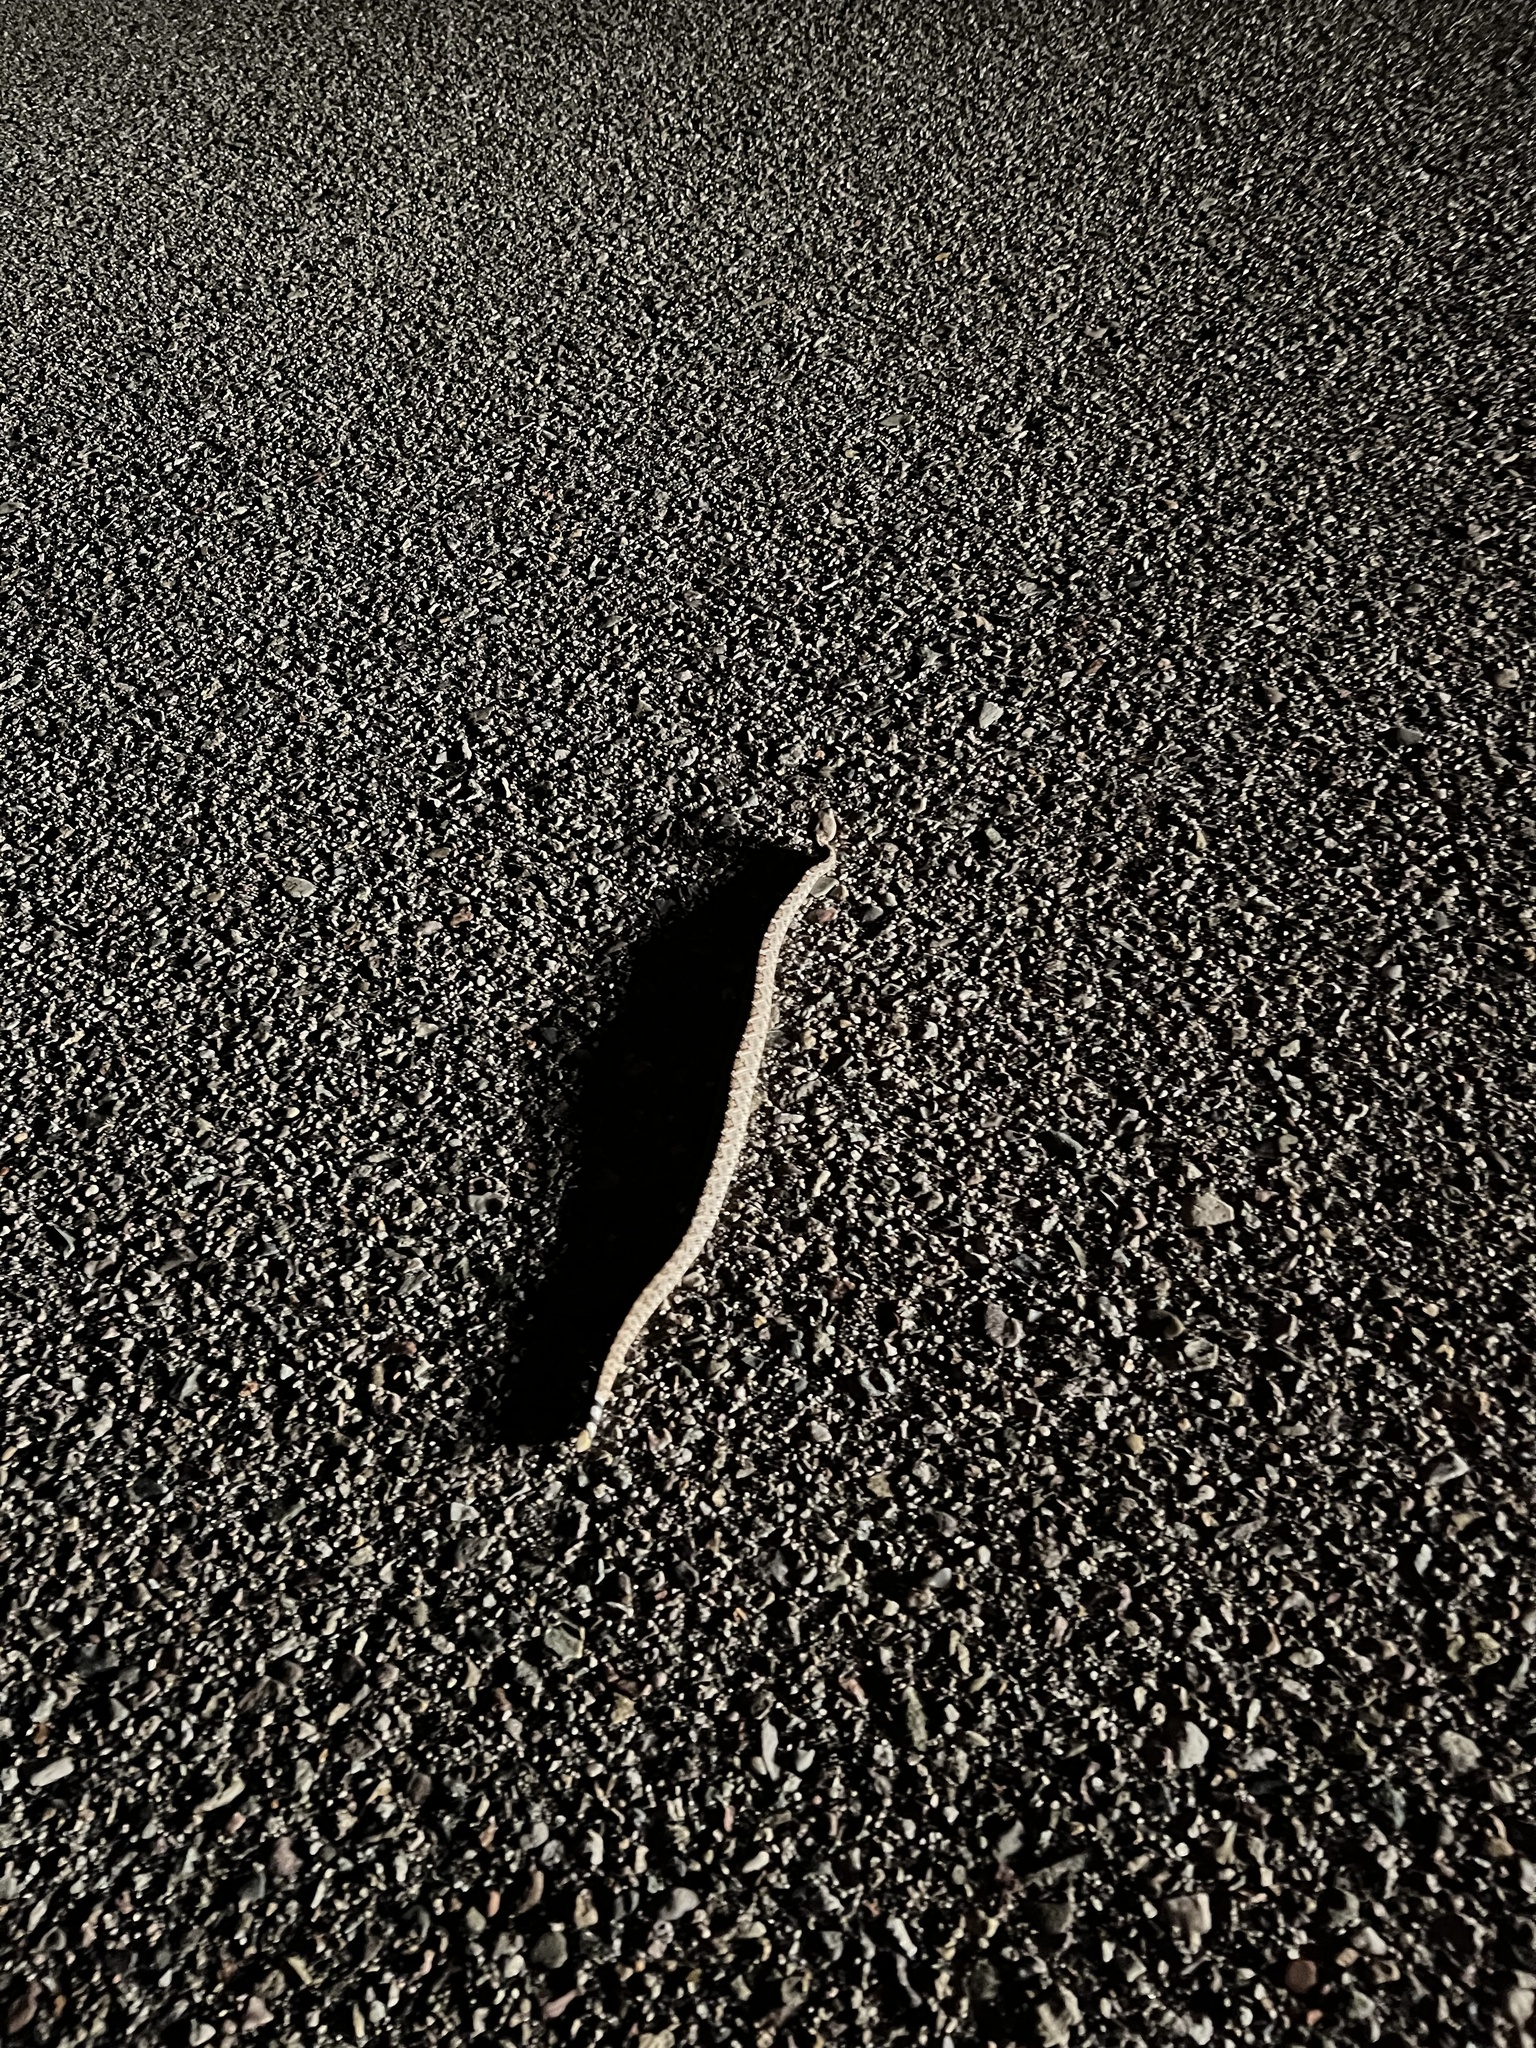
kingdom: Animalia
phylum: Chordata
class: Squamata
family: Viperidae
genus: Crotalus
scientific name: Crotalus atrox
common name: Western diamond-backed rattlesnake
